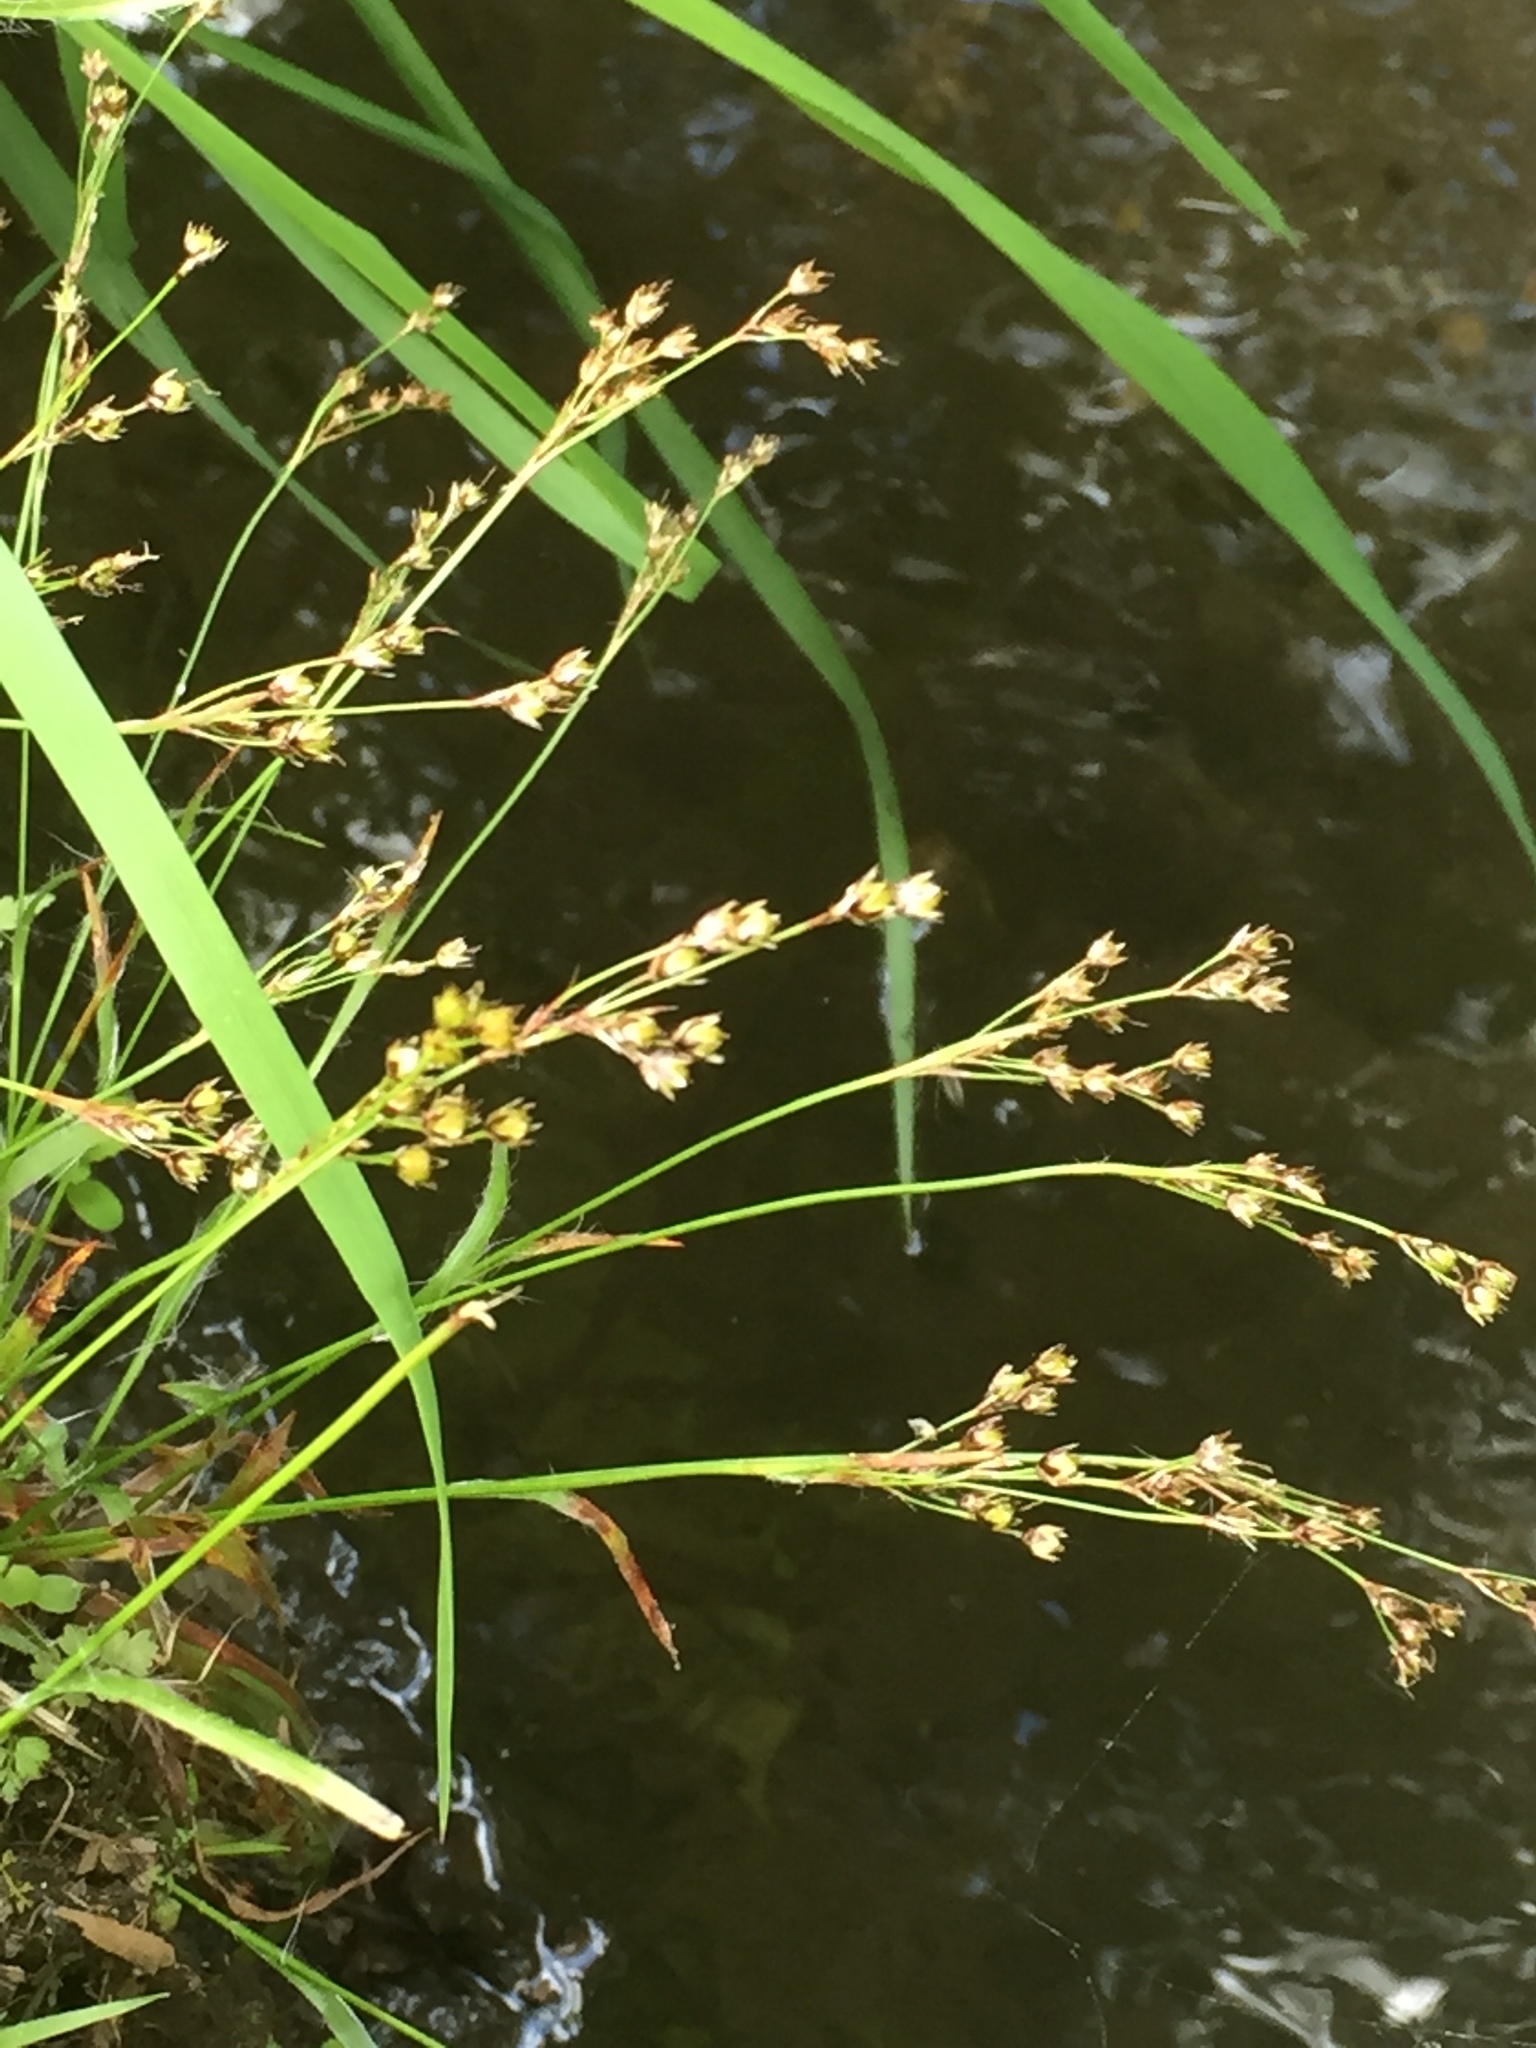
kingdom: Plantae
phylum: Tracheophyta
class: Liliopsida
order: Poales
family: Juncaceae
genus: Luzula
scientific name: Luzula forsteri
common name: Southern wood-rush
